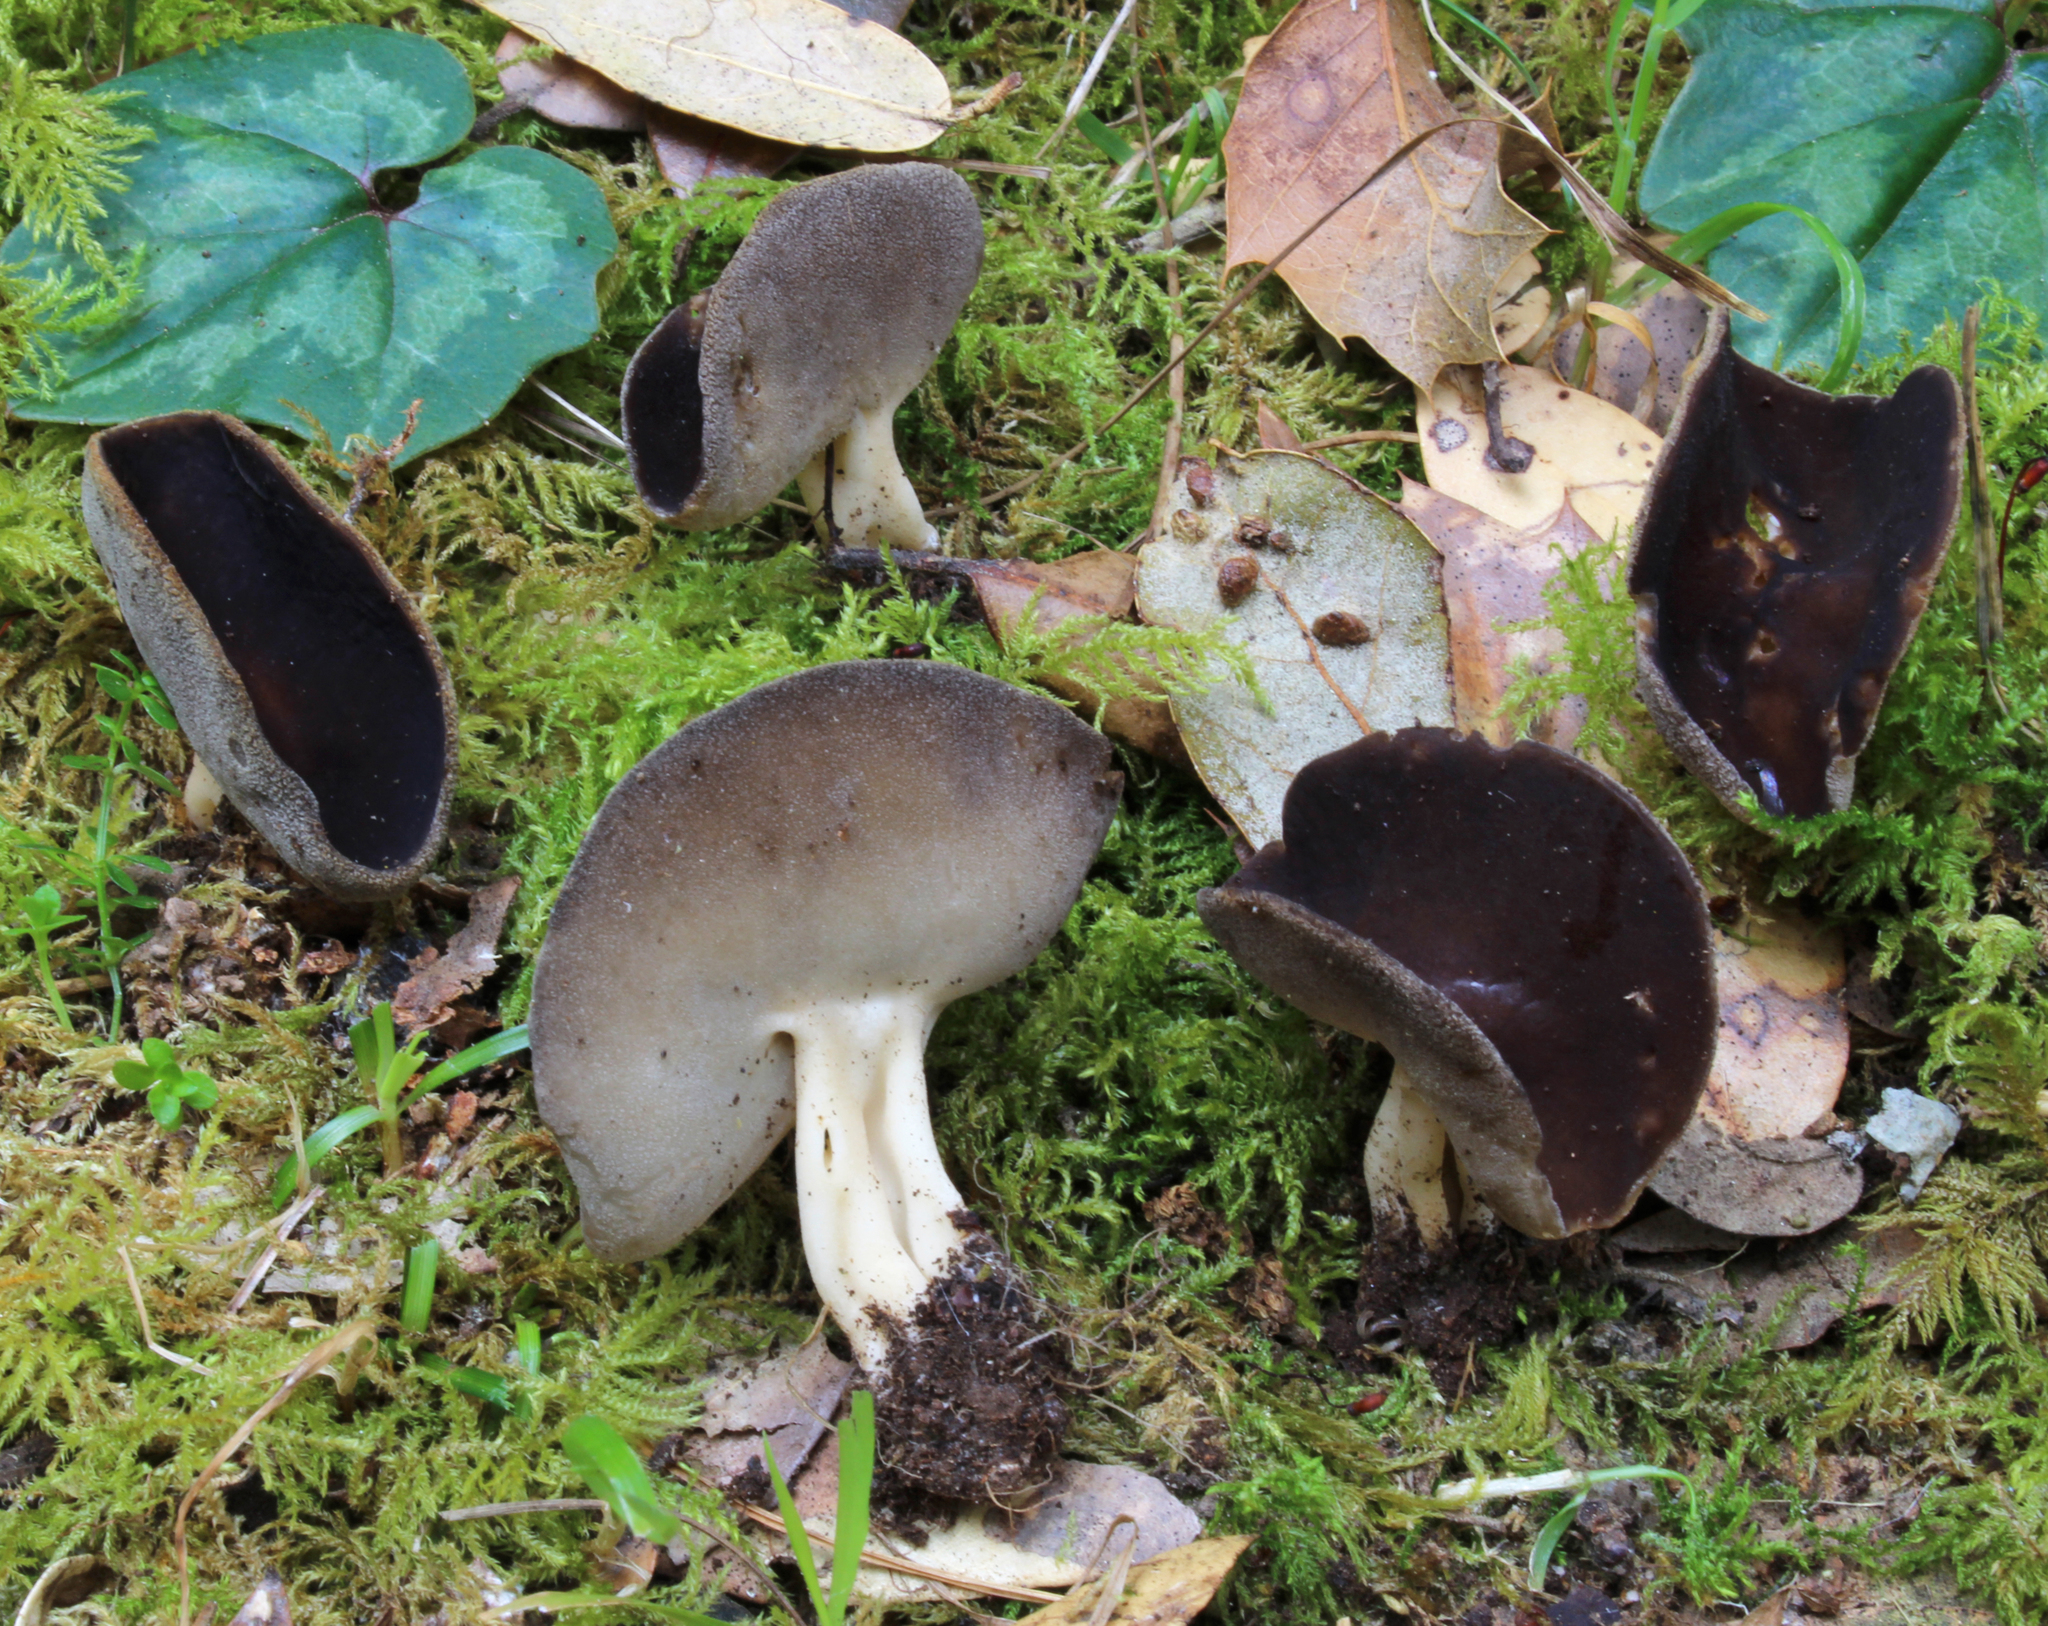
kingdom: Fungi
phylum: Ascomycota
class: Pezizomycetes
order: Pezizales
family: Helvellaceae
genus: Helvella
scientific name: Helvella solitaria
